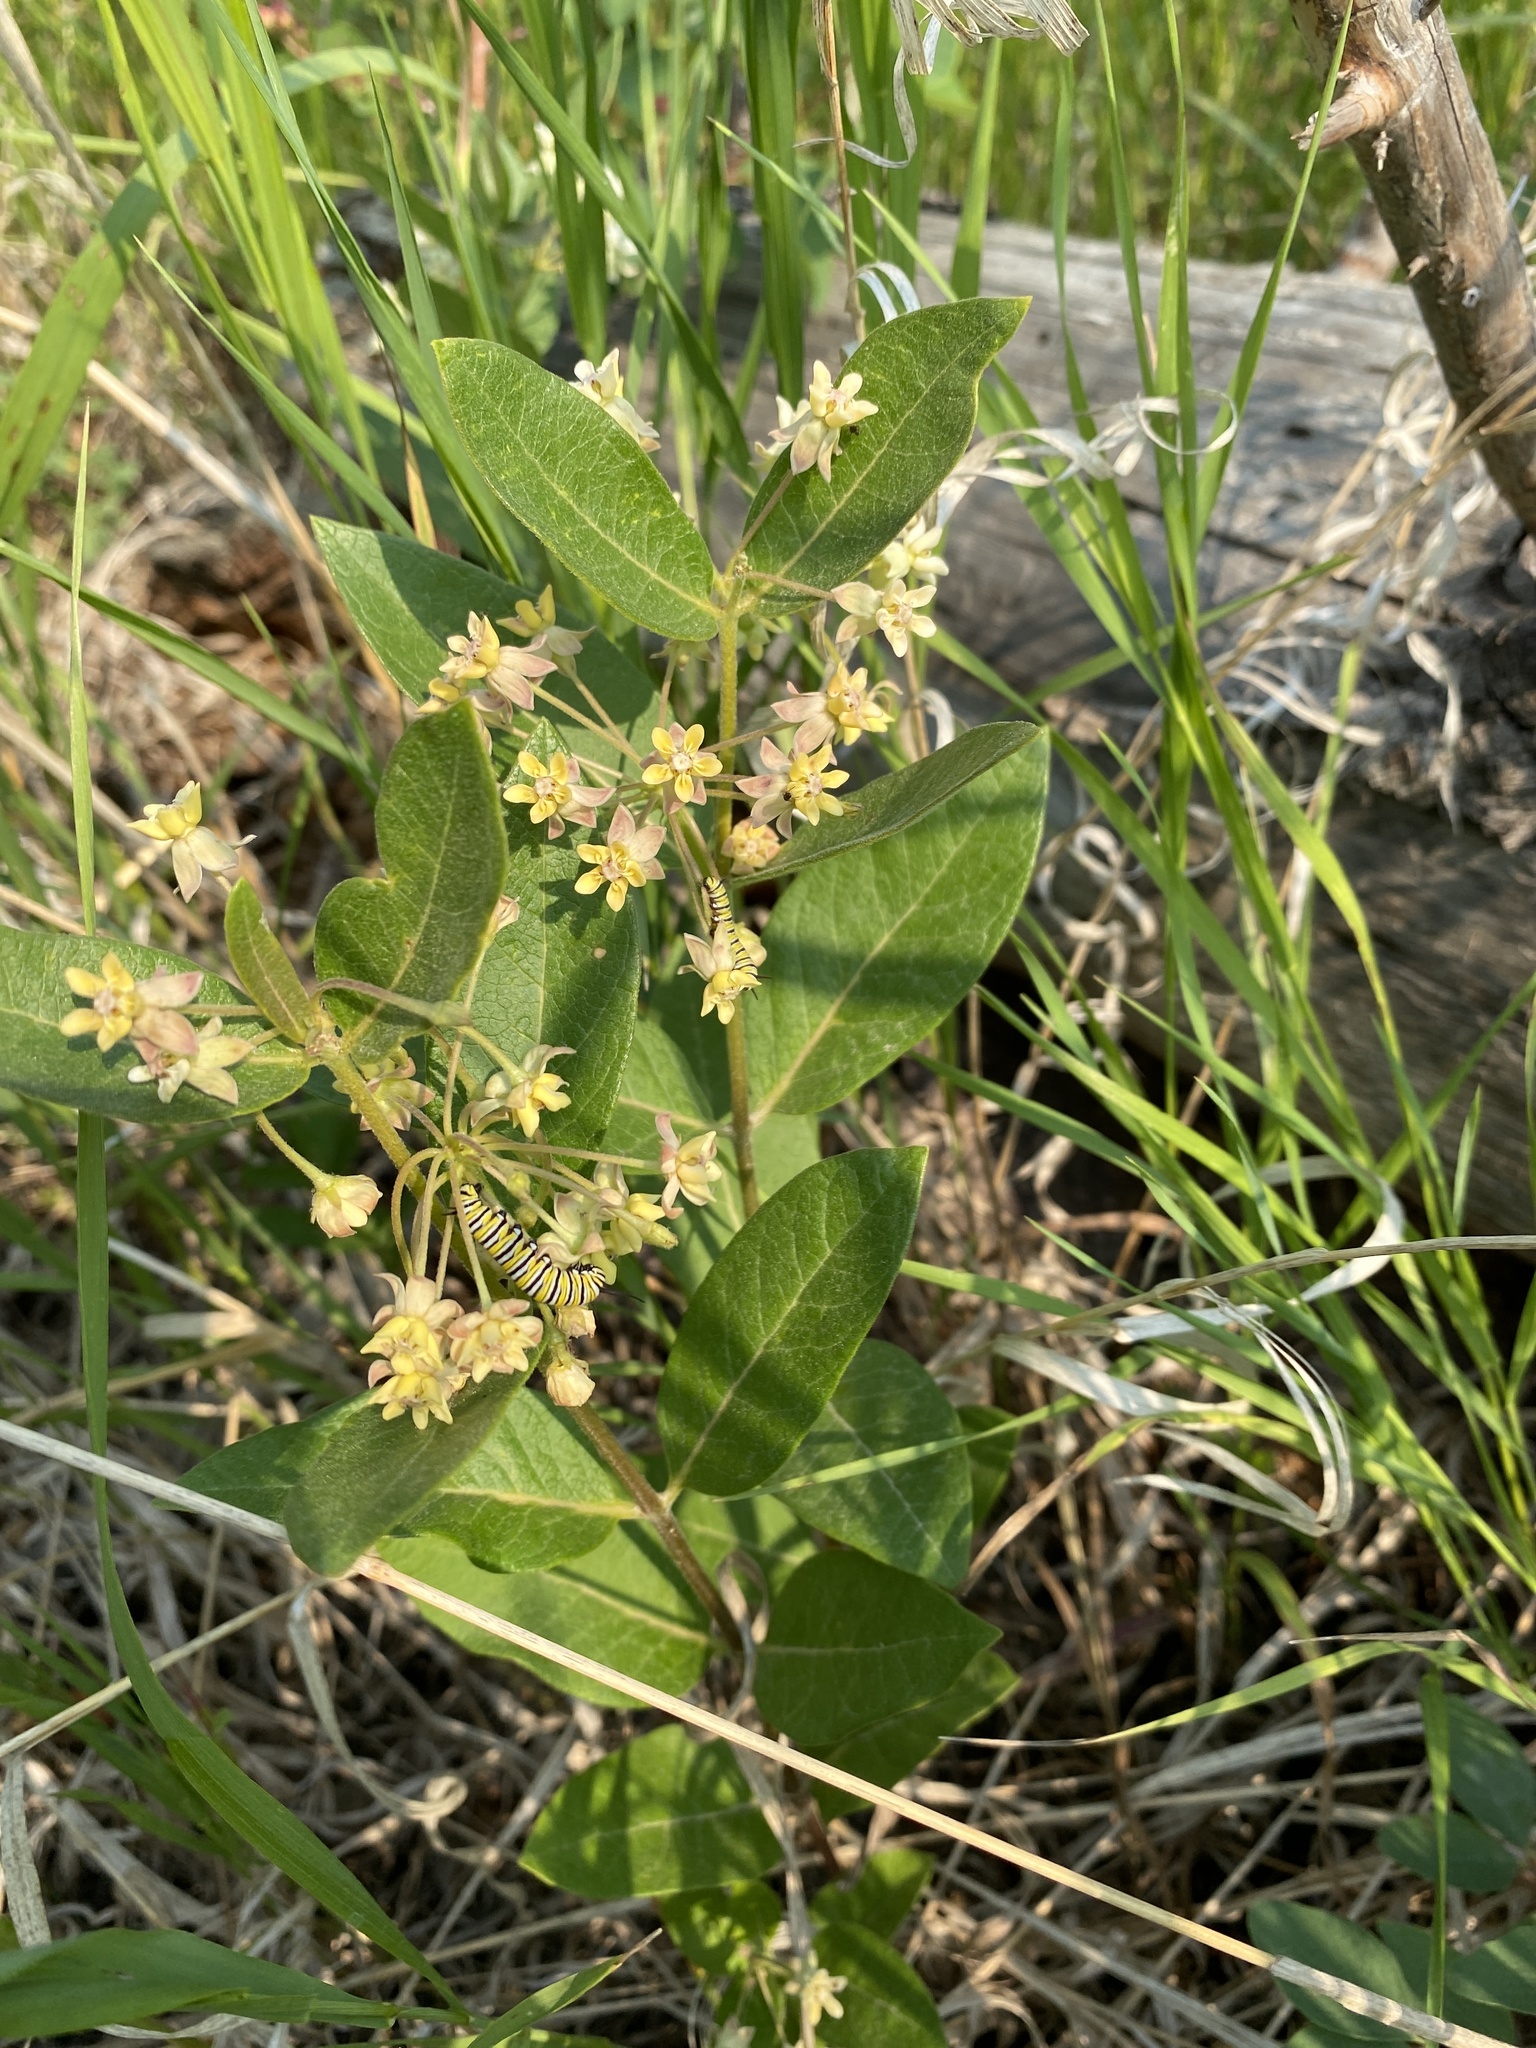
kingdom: Animalia
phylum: Arthropoda
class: Insecta
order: Lepidoptera
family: Nymphalidae
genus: Danaus
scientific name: Danaus plexippus
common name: Monarch
